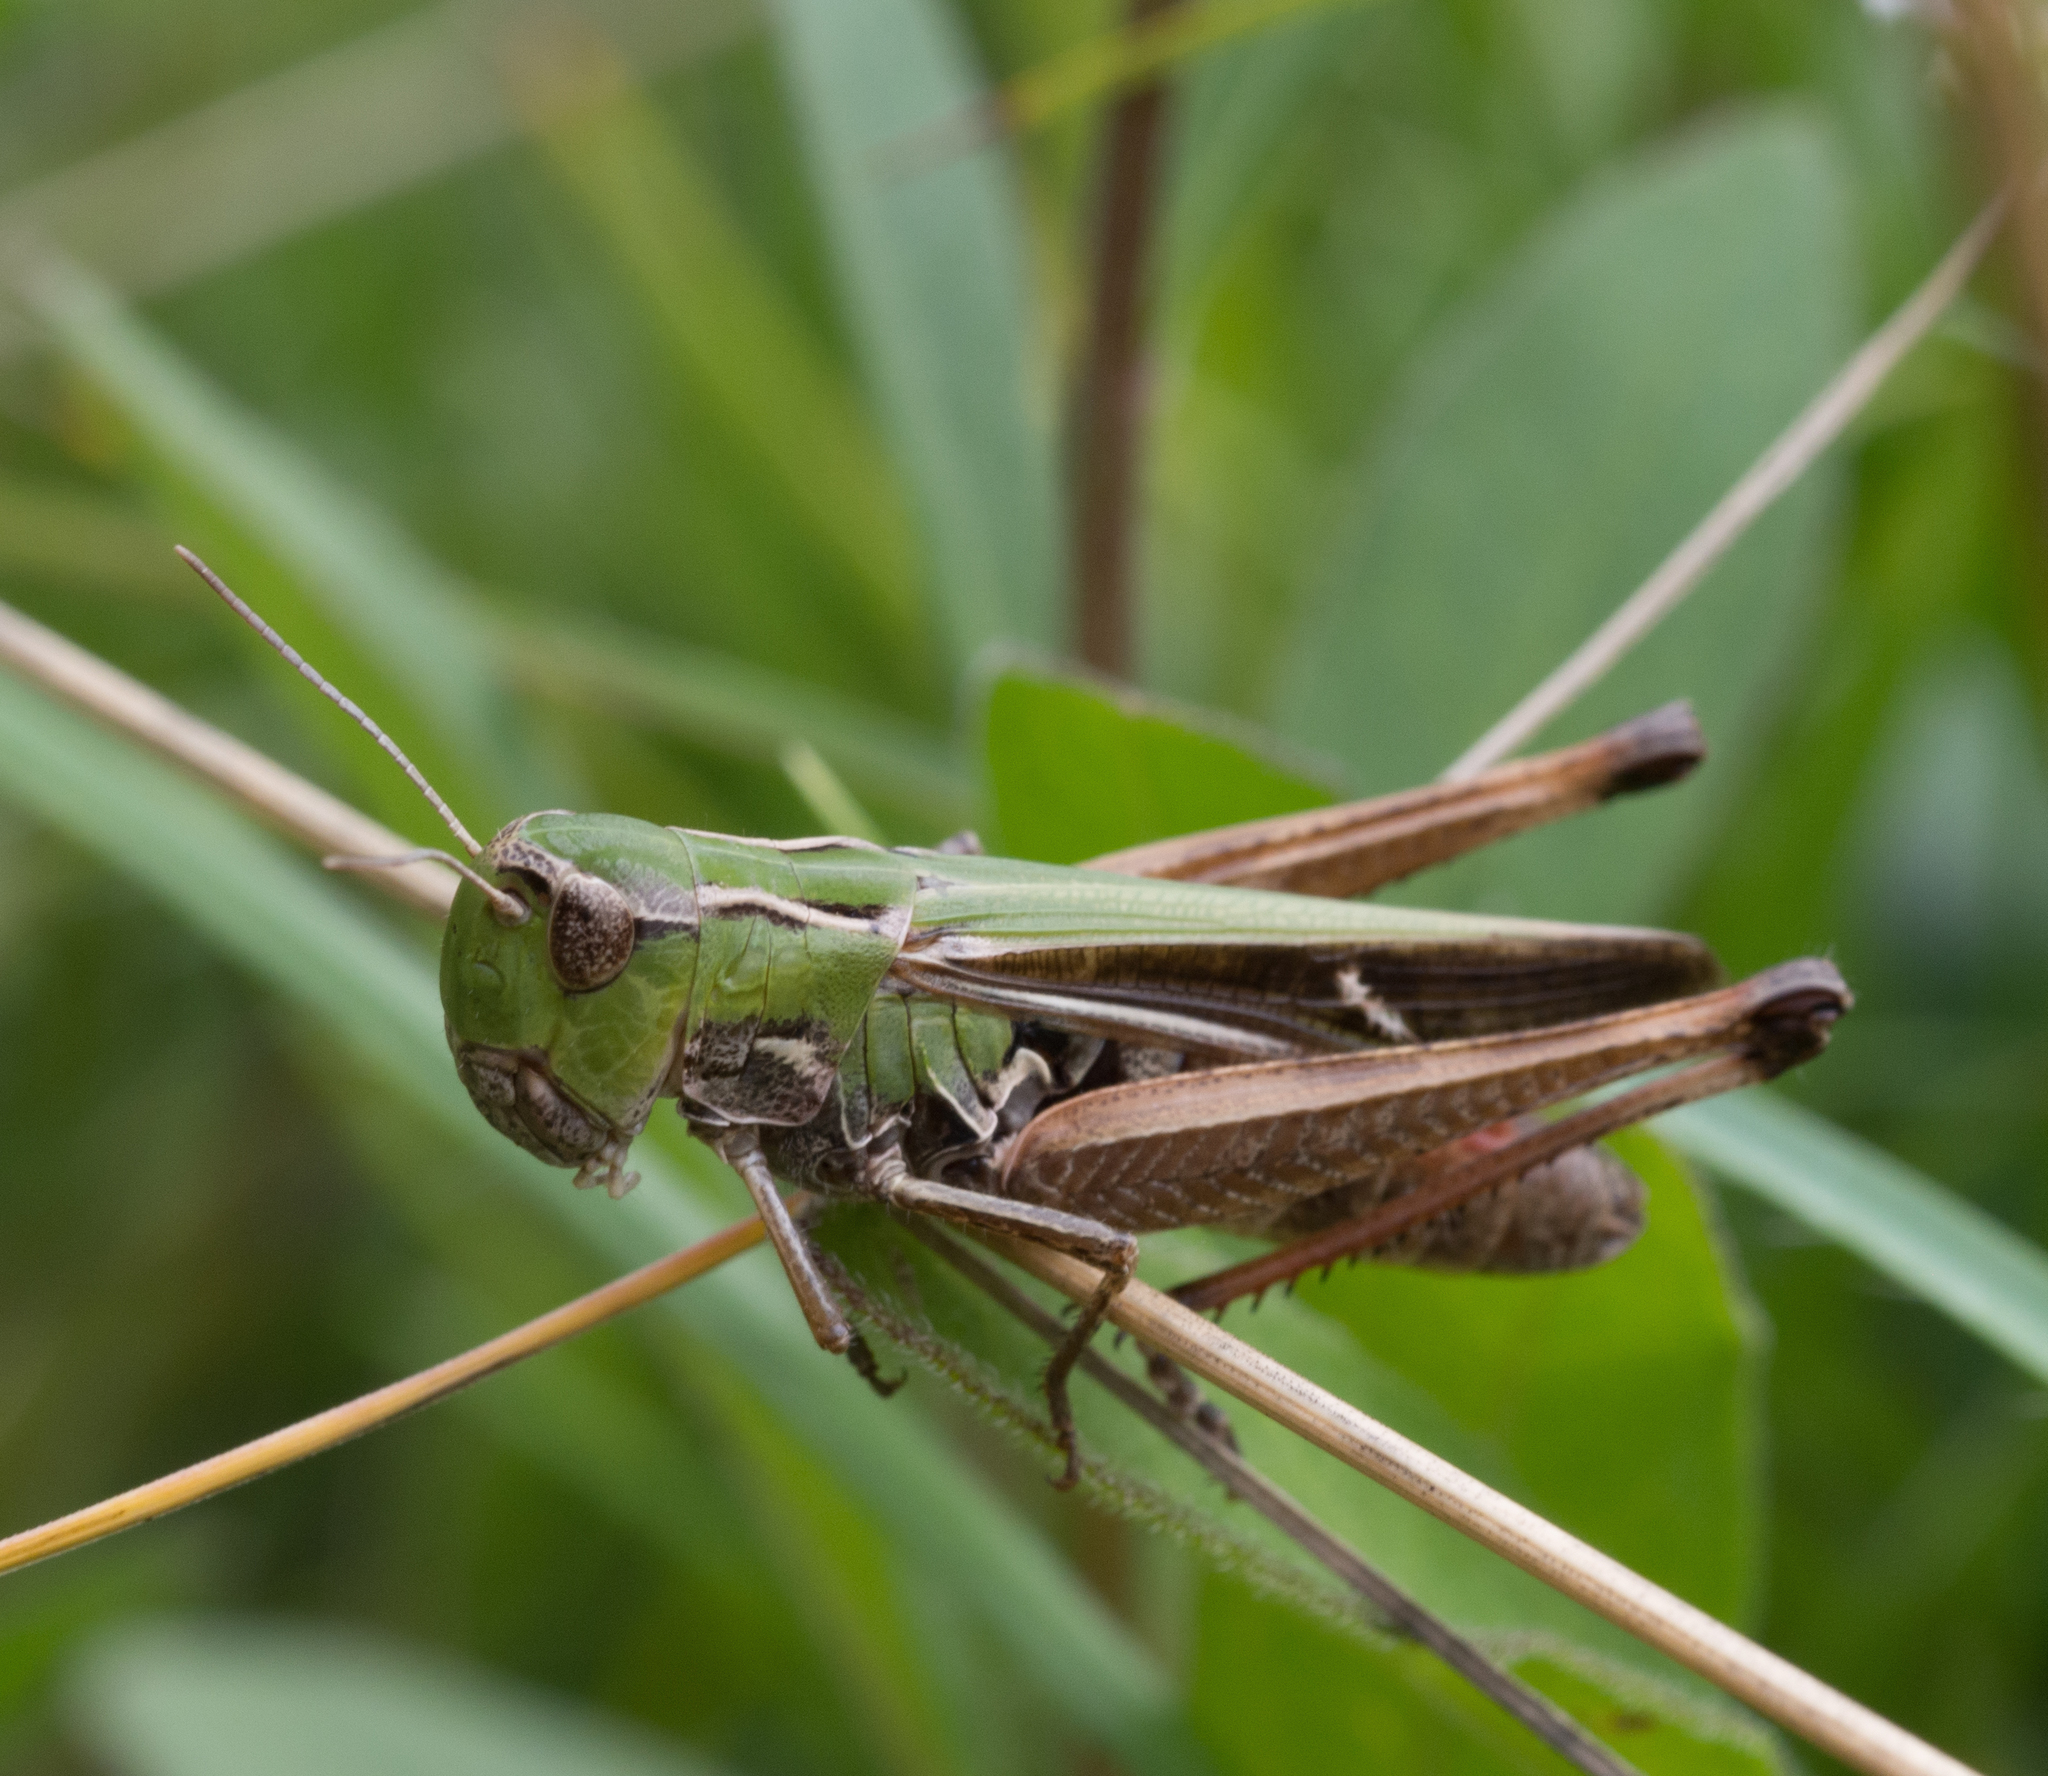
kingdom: Animalia
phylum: Arthropoda
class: Insecta
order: Orthoptera
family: Acrididae
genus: Stenobothrus
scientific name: Stenobothrus lineatus
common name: Stripe-winged grasshopper
